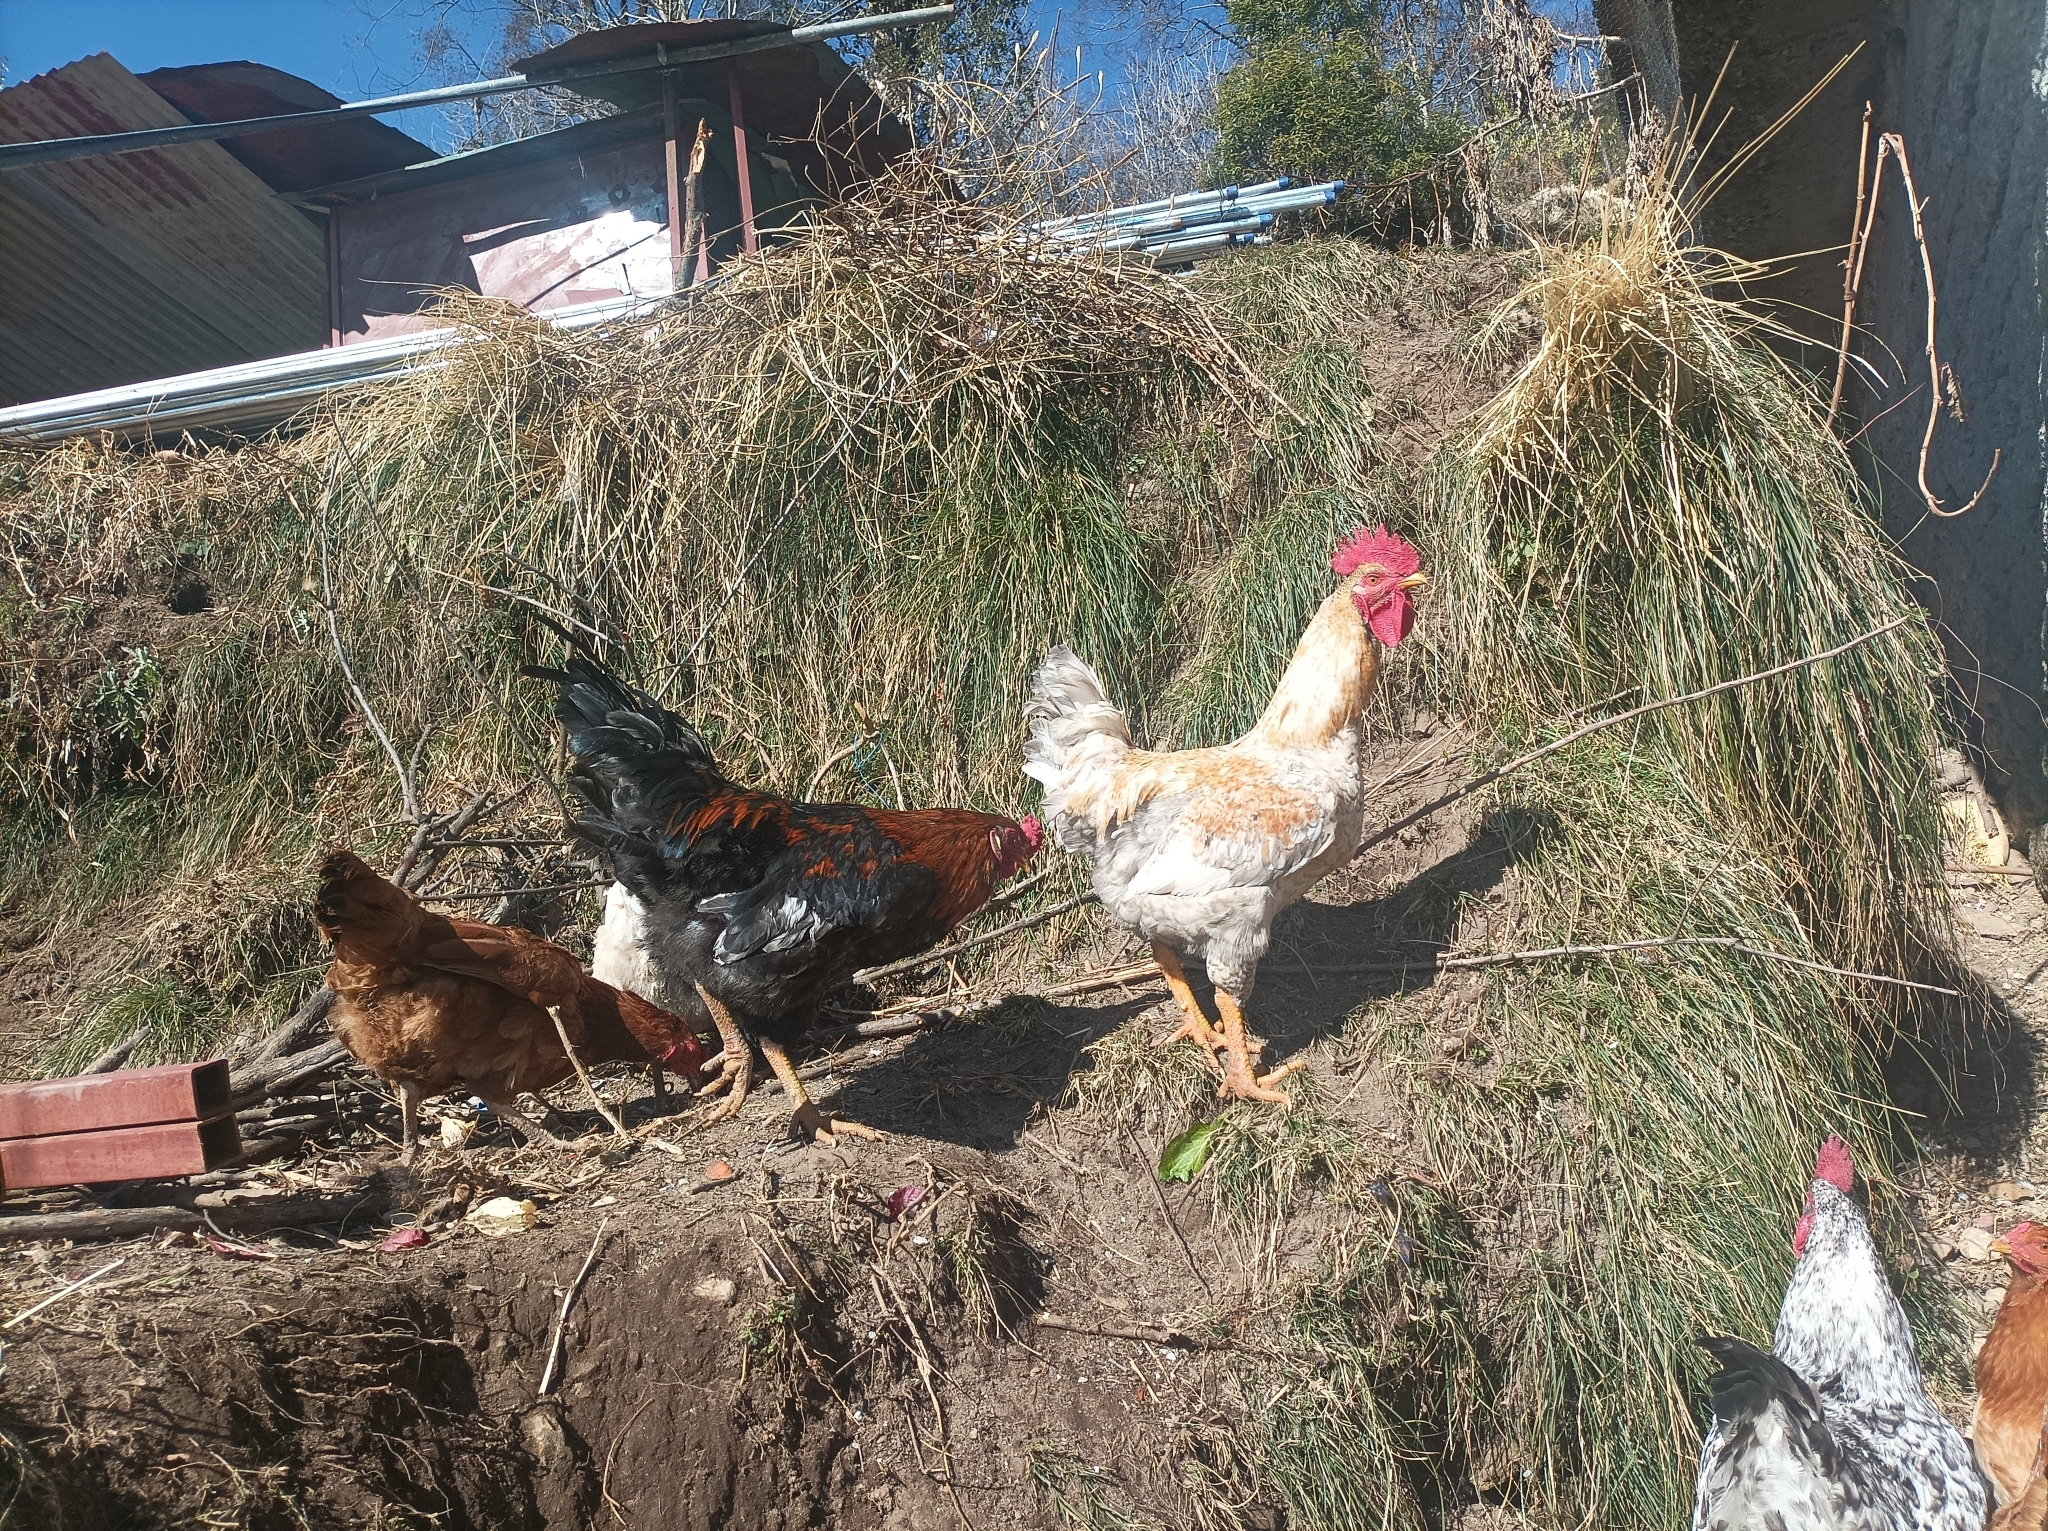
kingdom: Animalia
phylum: Chordata
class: Aves
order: Galliformes
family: Phasianidae
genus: Gallus
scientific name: Gallus gallus
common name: Red junglefowl
